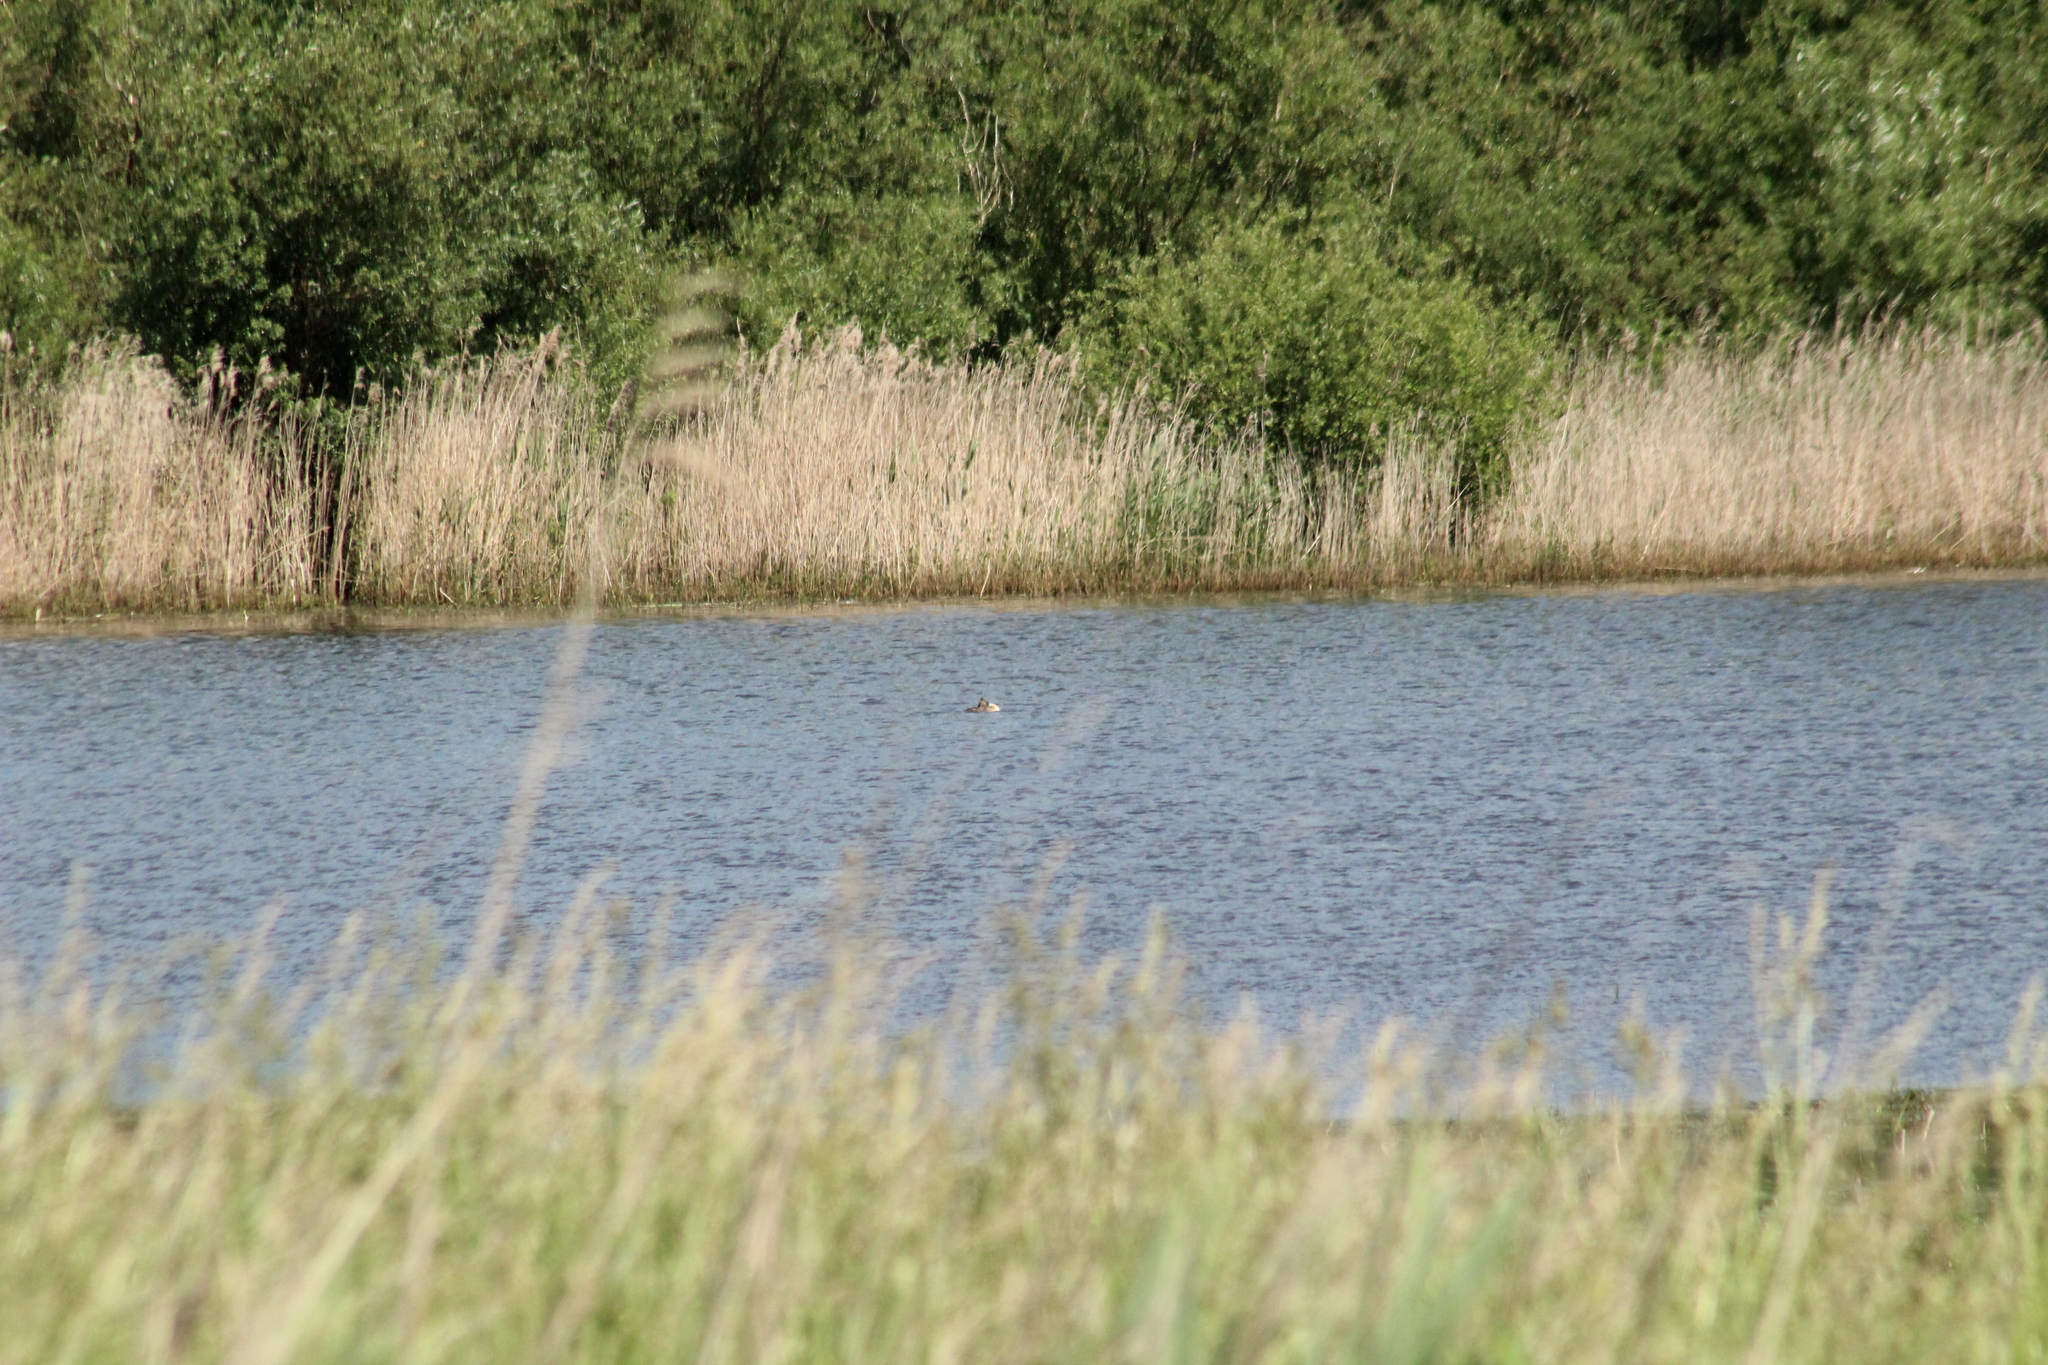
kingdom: Animalia
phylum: Chordata
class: Aves
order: Podicipediformes
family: Podicipedidae
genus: Podiceps
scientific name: Podiceps cristatus
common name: Great crested grebe
